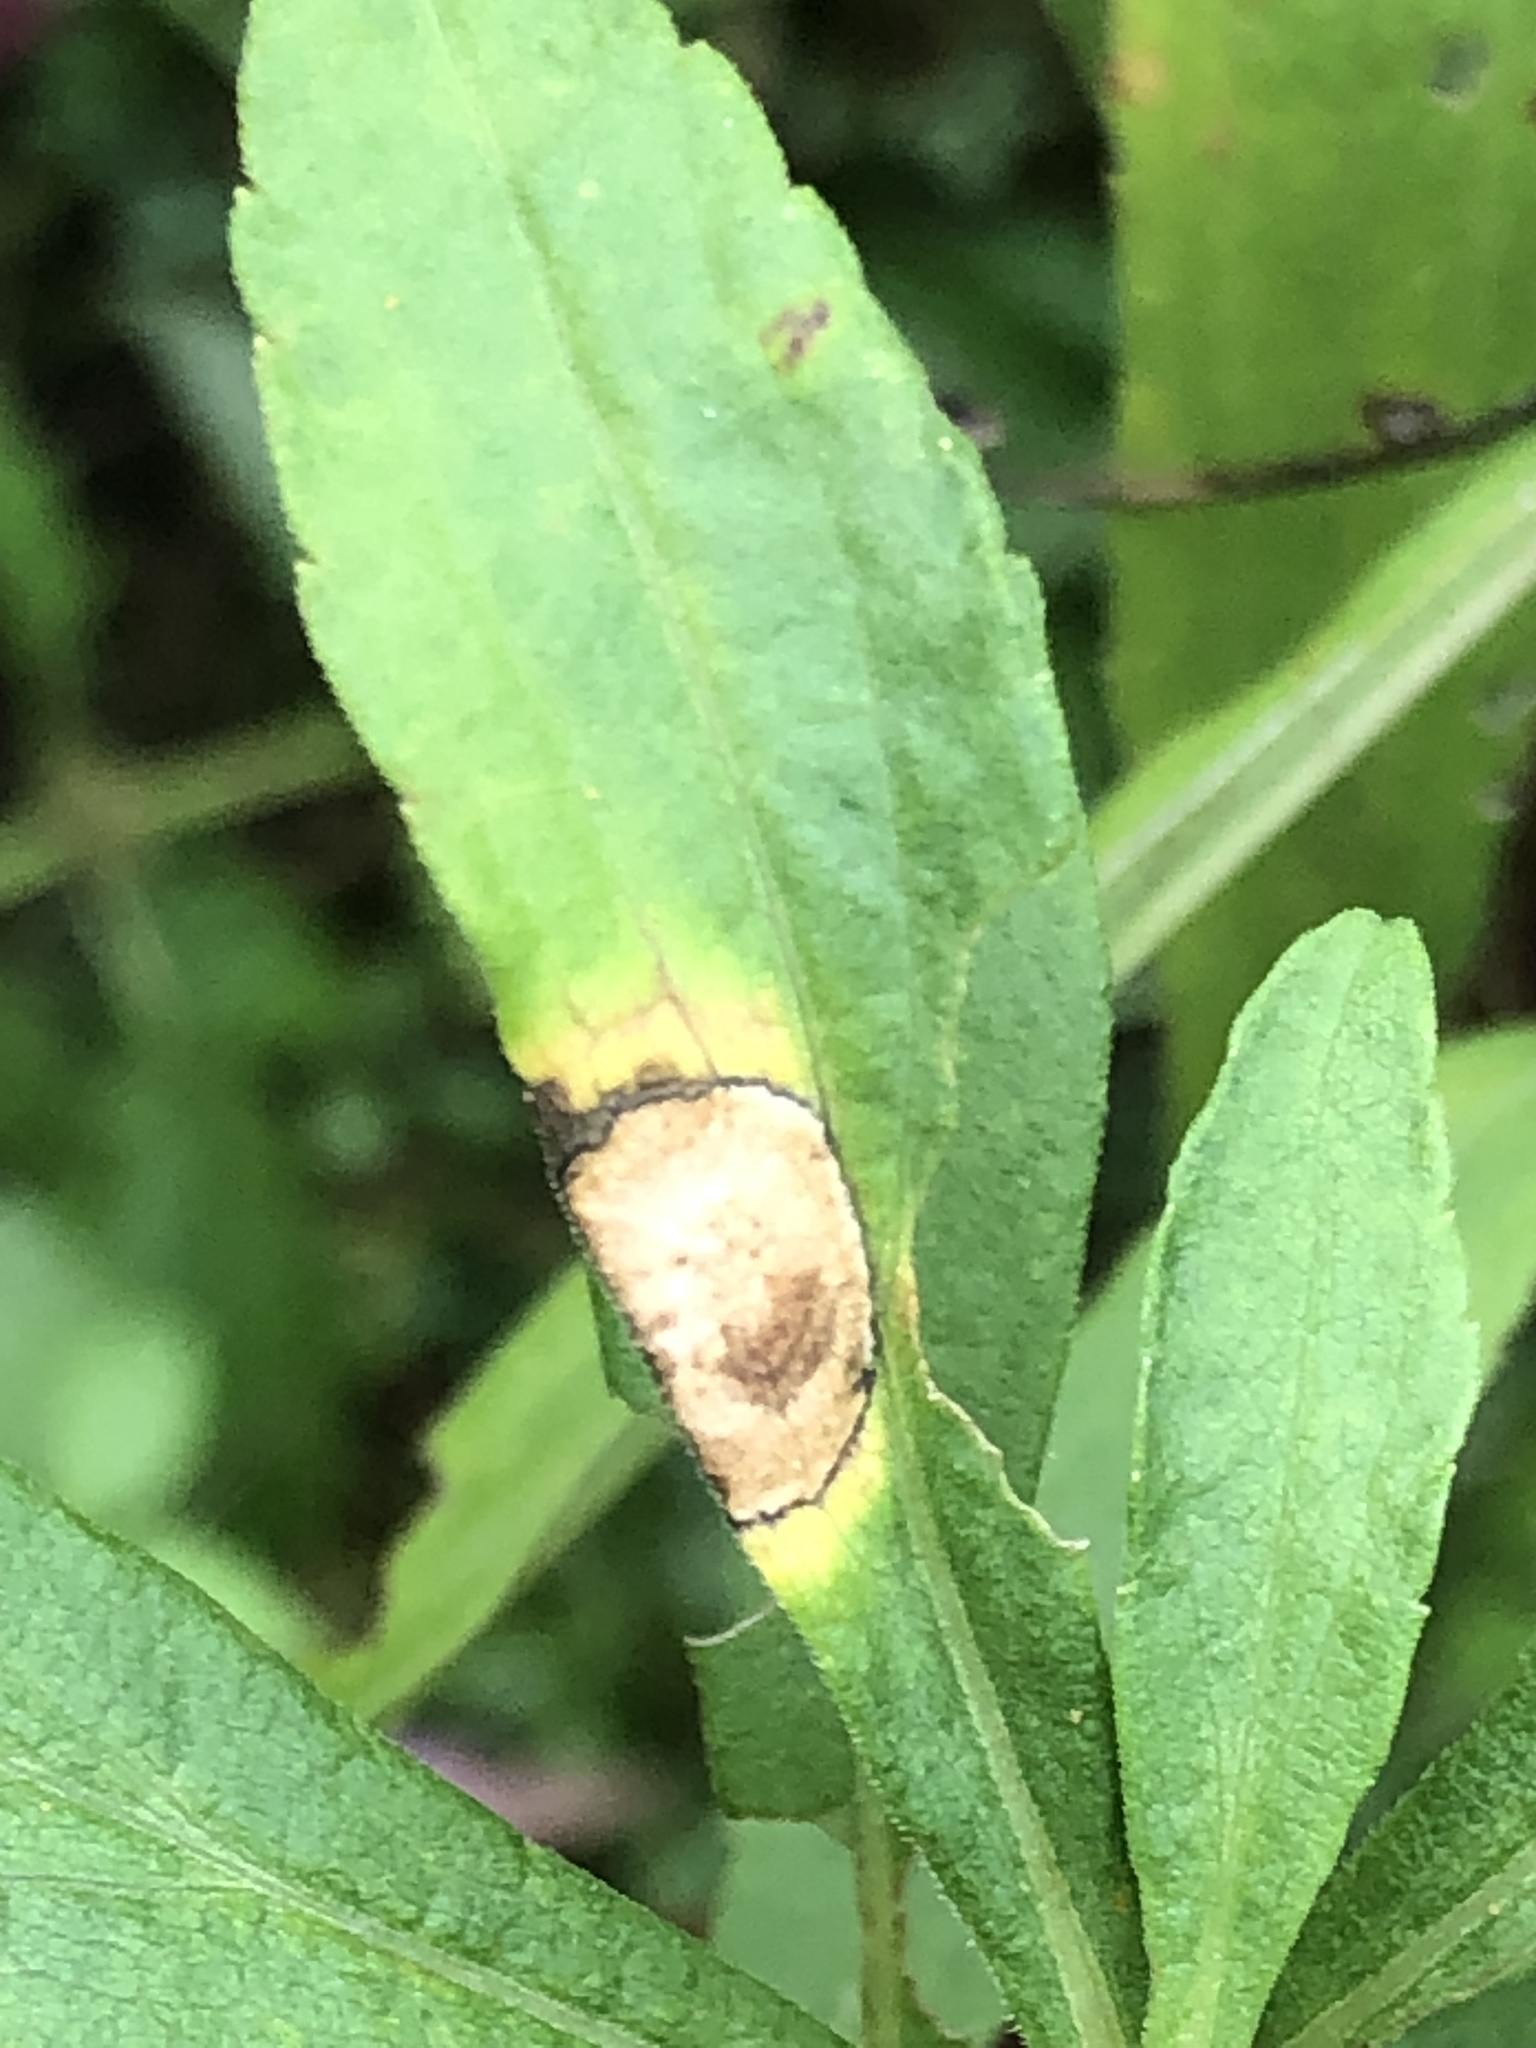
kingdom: Animalia
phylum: Arthropoda
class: Insecta
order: Diptera
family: Cecidomyiidae
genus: Asteromyia
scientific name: Asteromyia carbonifera
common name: Carbonifera goldenrod gall midge
